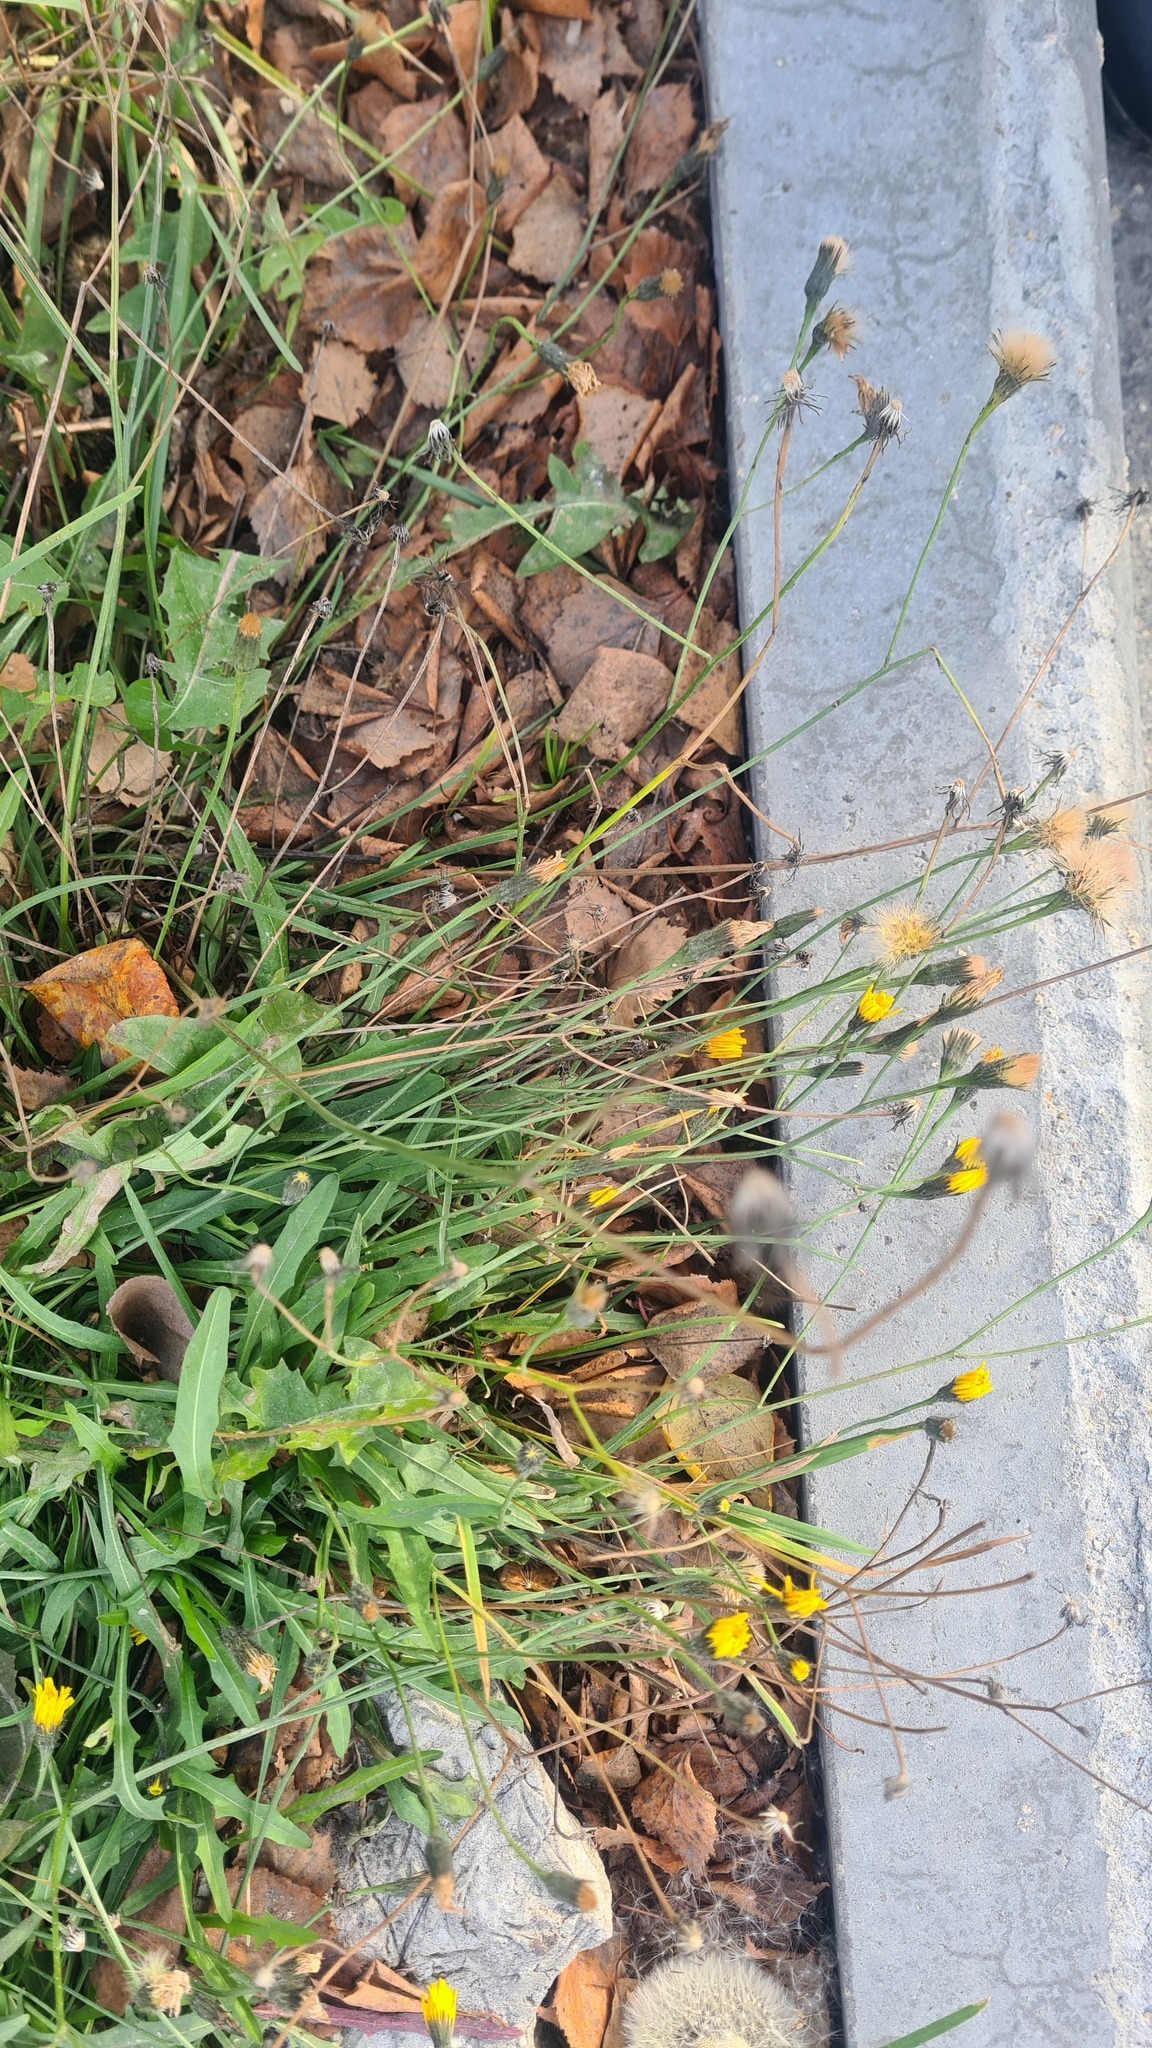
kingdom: Plantae
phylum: Tracheophyta
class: Magnoliopsida
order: Asterales
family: Asteraceae
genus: Scorzoneroides
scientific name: Scorzoneroides autumnalis
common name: Autumn hawkbit
